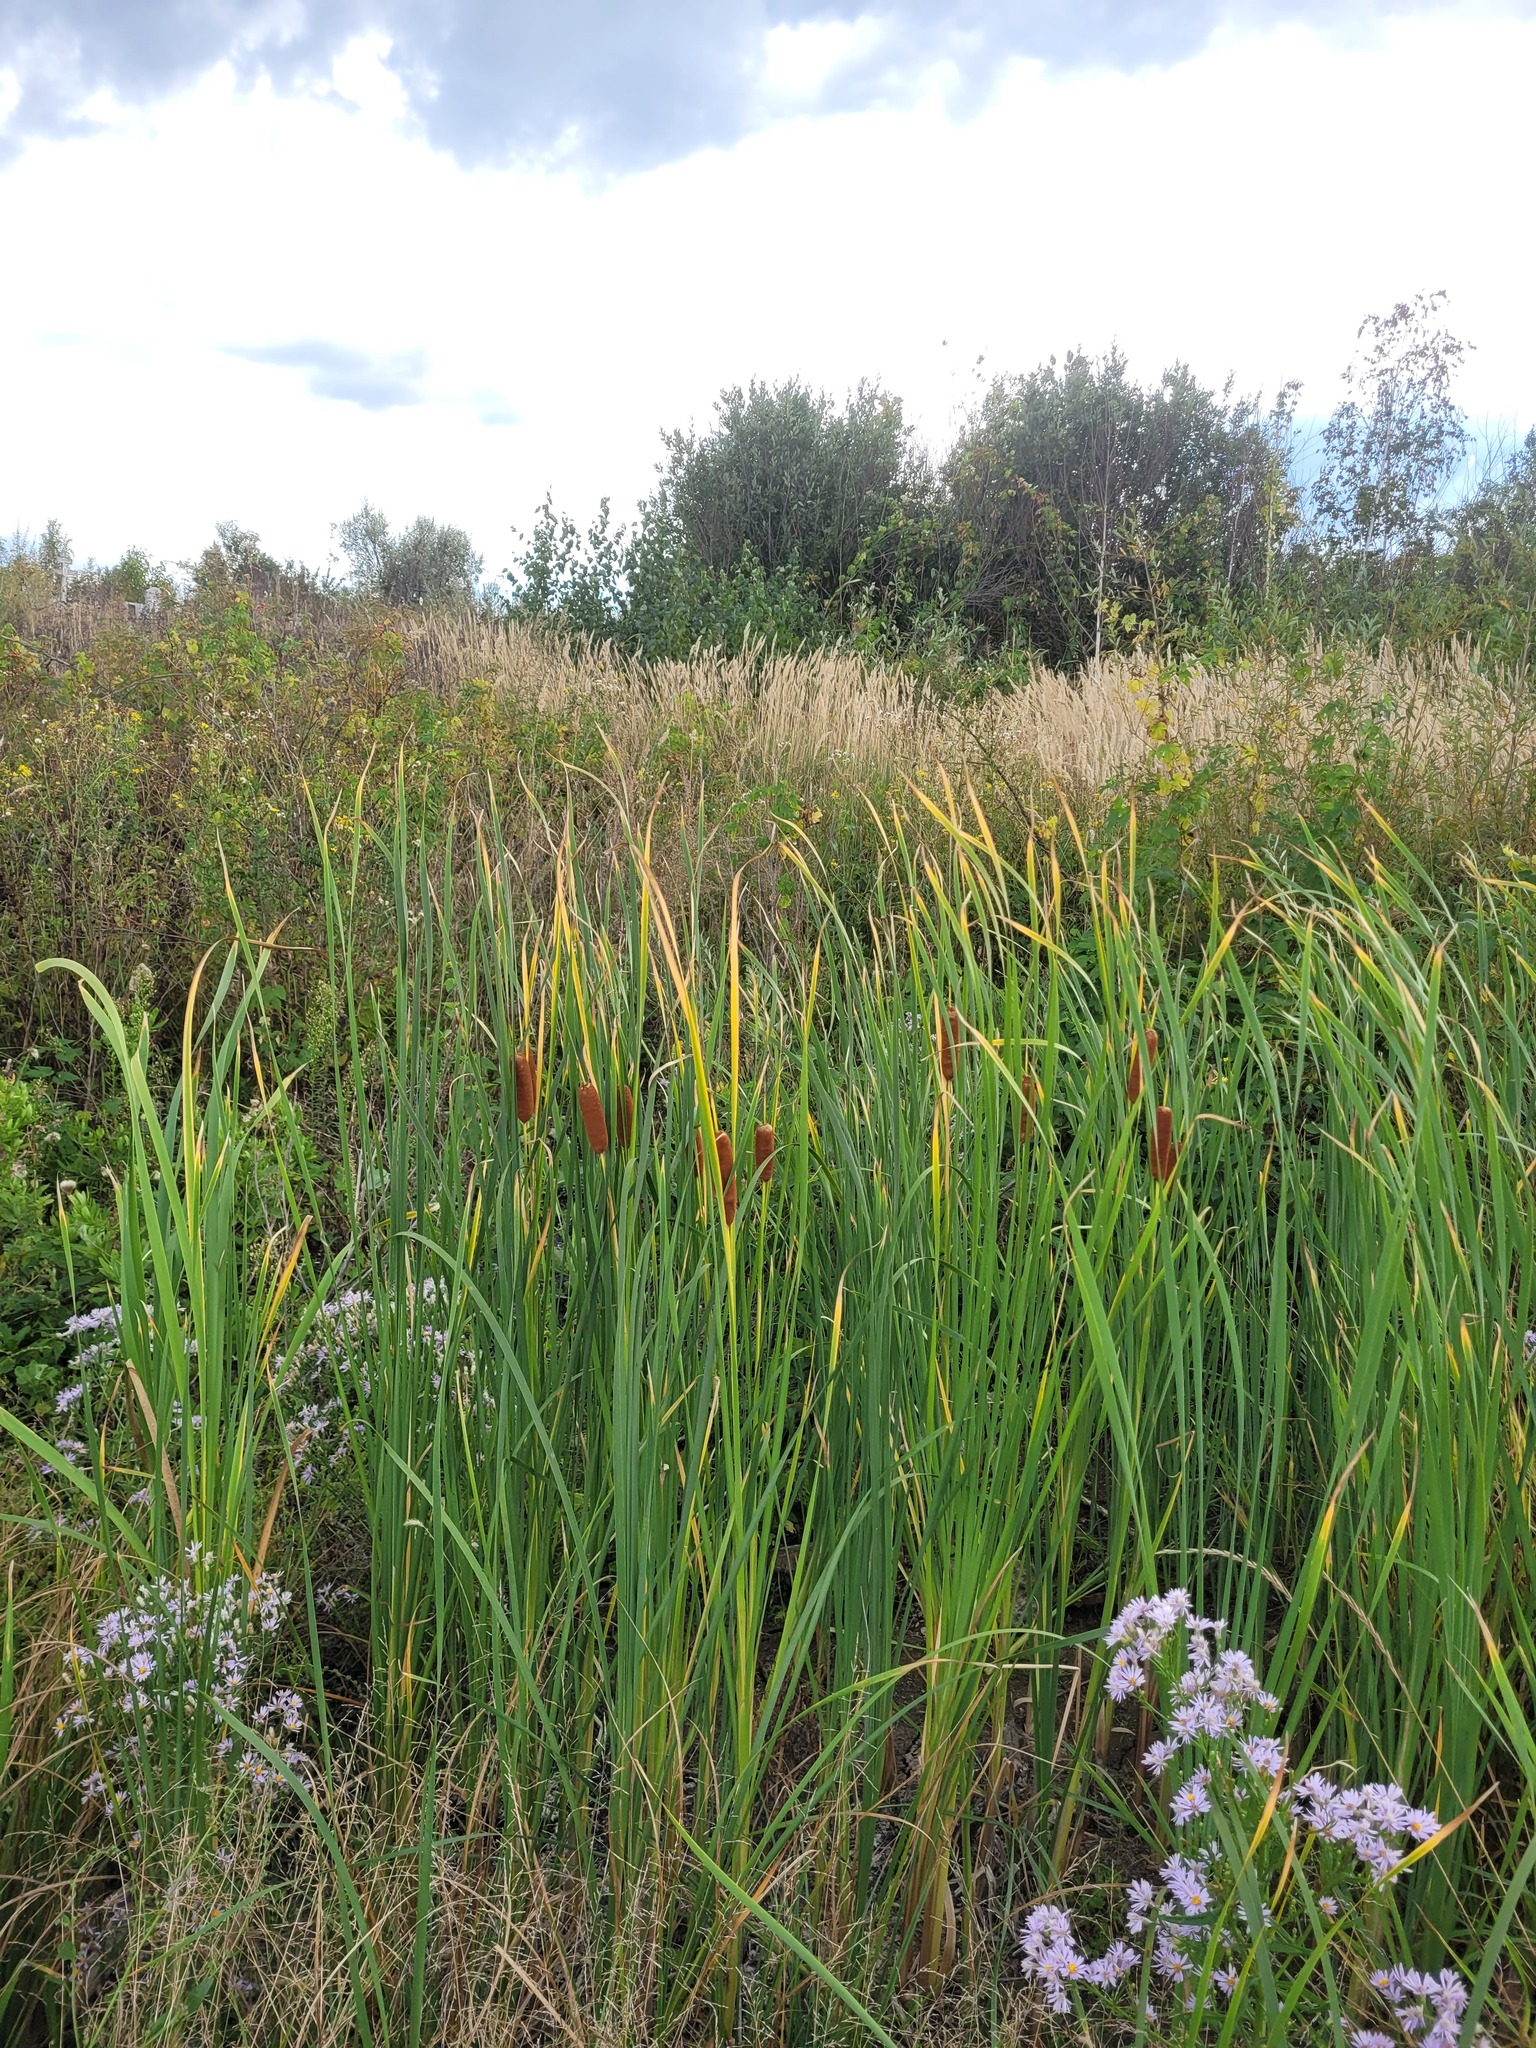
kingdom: Plantae
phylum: Tracheophyta
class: Liliopsida
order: Poales
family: Typhaceae
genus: Typha
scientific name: Typha angustifolia
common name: Lesser bulrush
